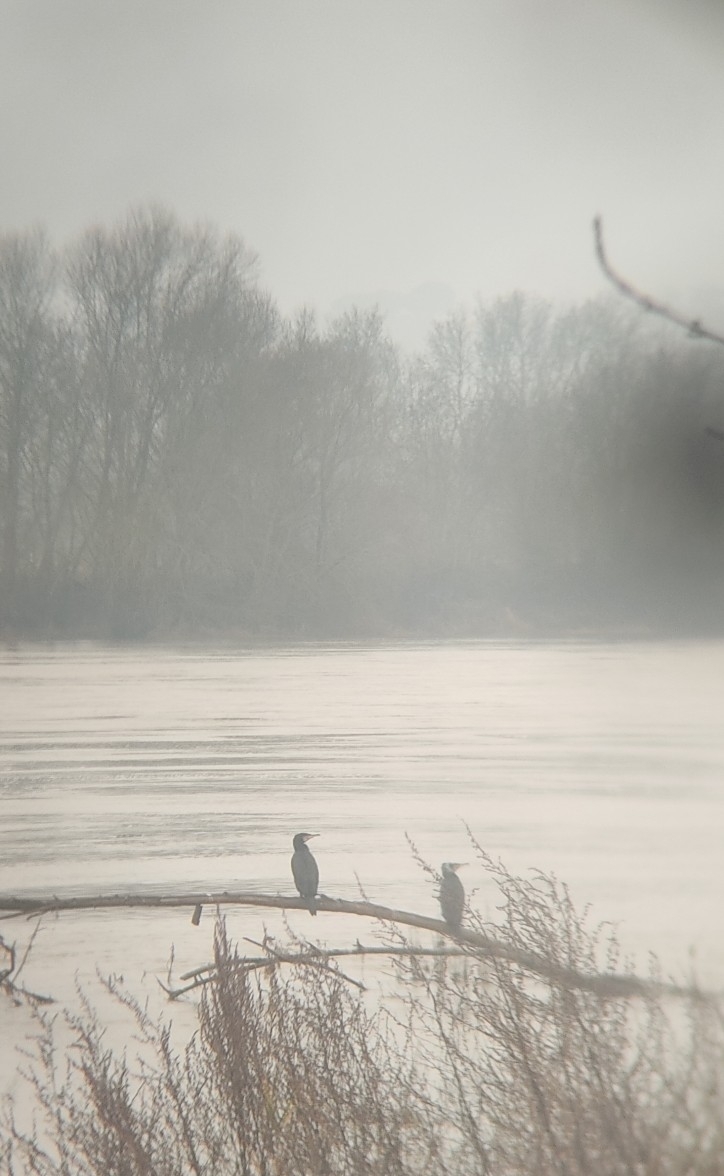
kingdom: Animalia
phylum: Chordata
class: Aves
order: Suliformes
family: Phalacrocoracidae
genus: Phalacrocorax
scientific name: Phalacrocorax carbo
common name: Great cormorant
